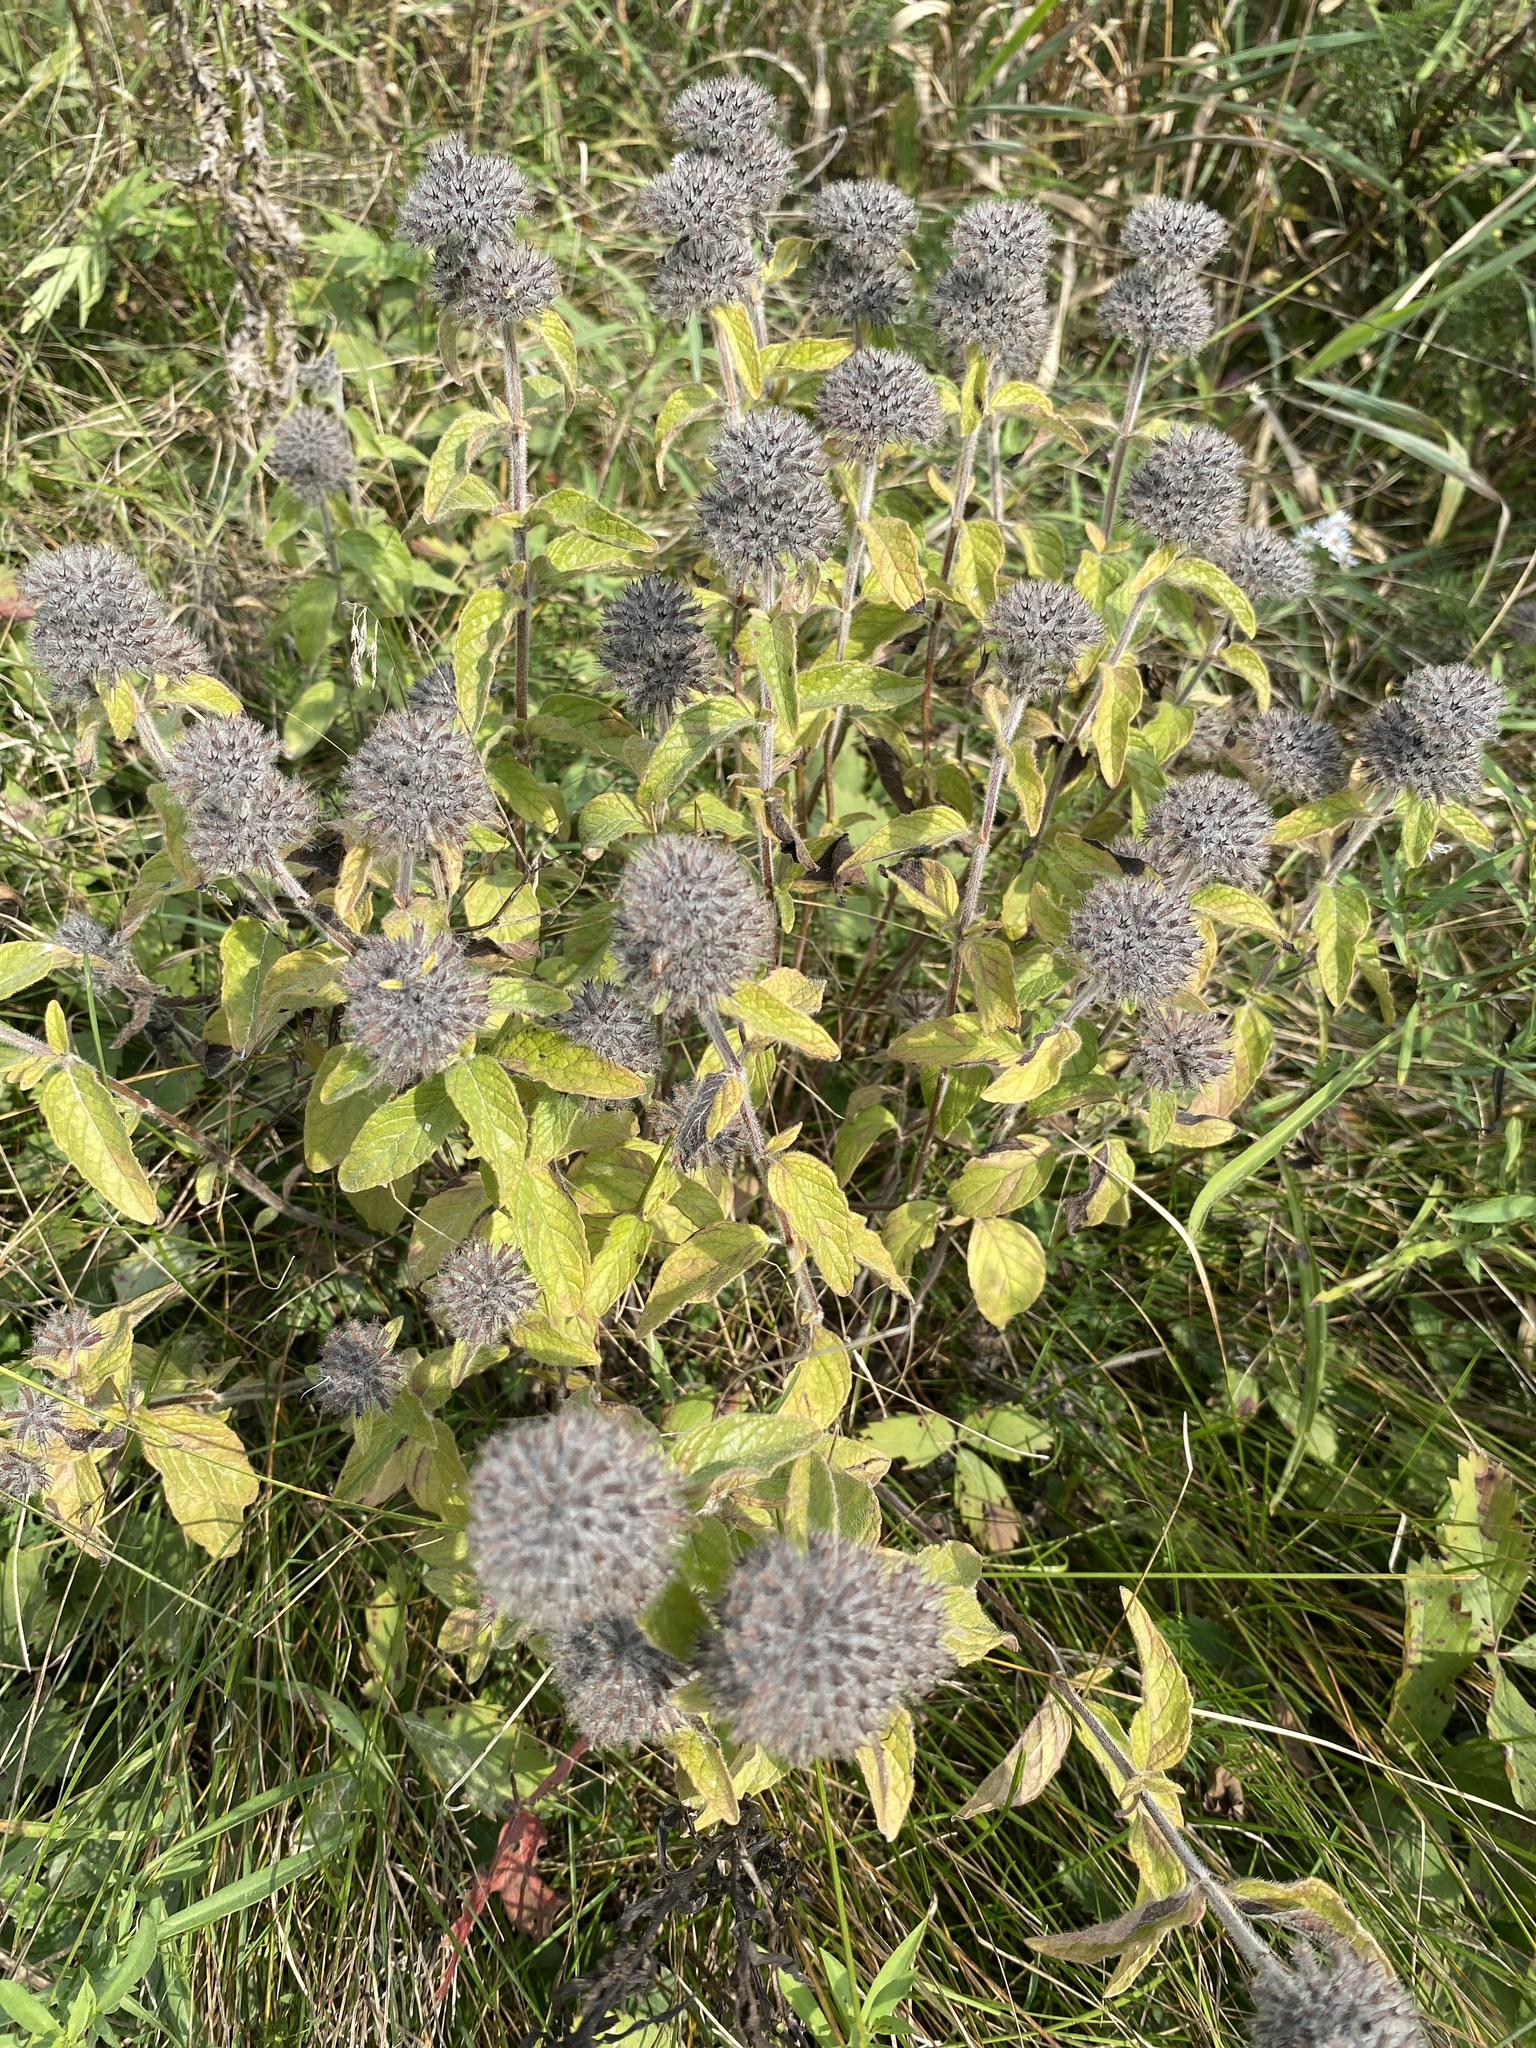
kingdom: Plantae
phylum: Tracheophyta
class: Magnoliopsida
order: Lamiales
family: Lamiaceae
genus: Clinopodium
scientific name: Clinopodium vulgare
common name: Wild basil
